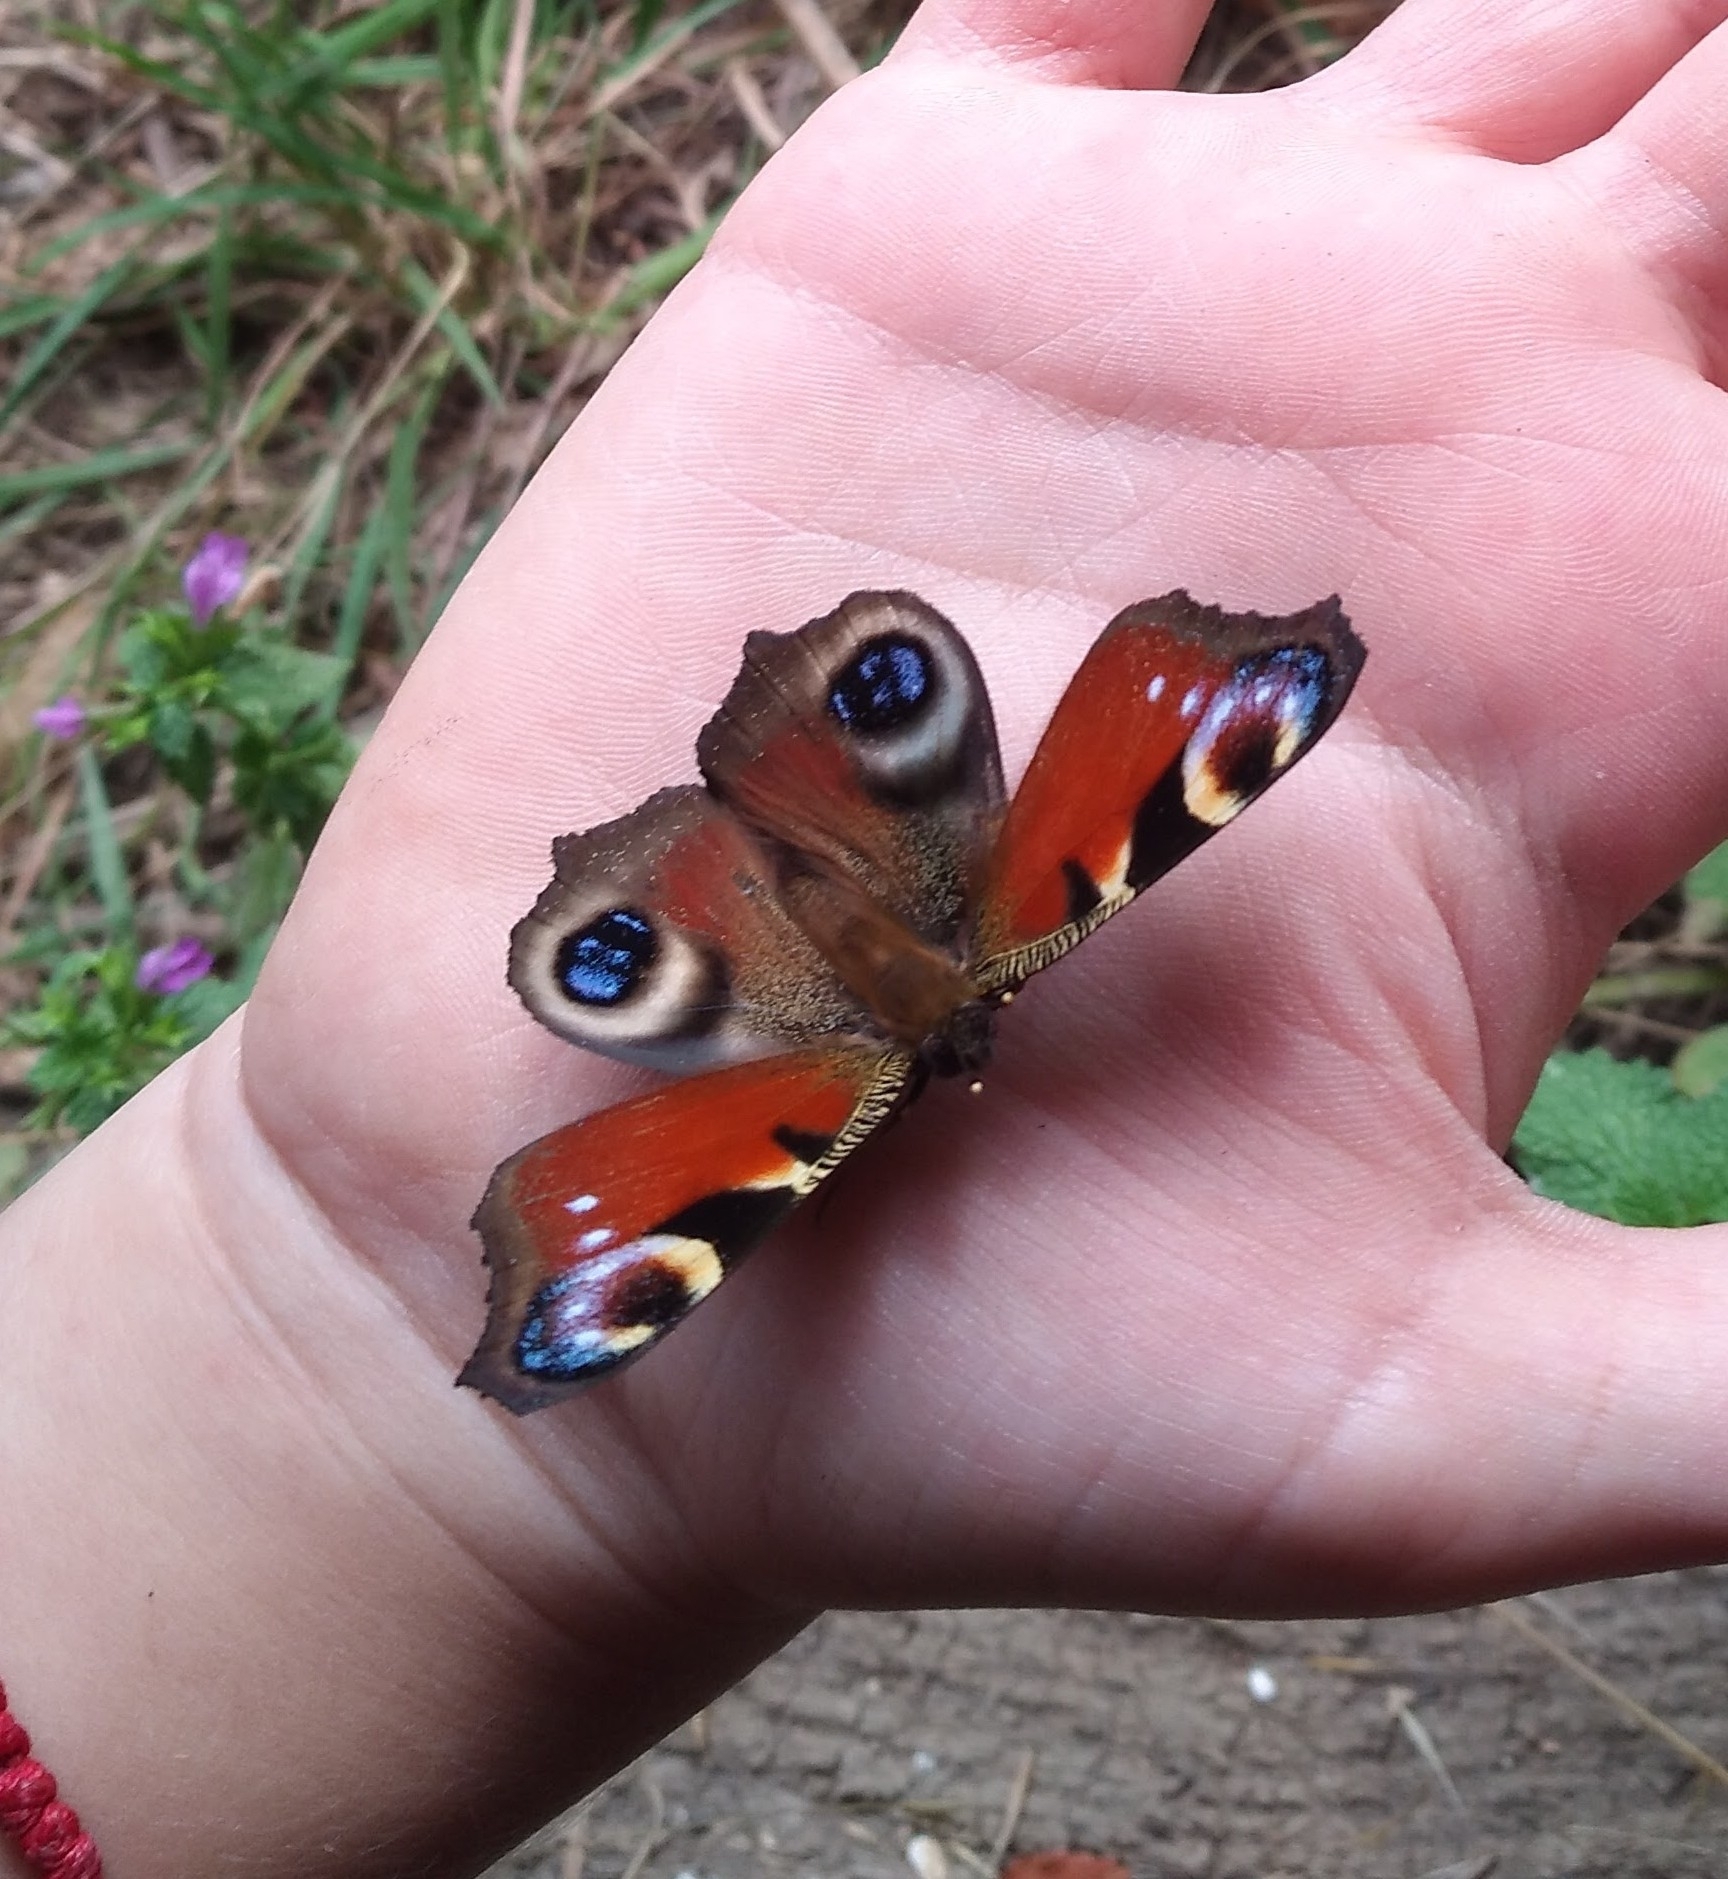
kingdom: Animalia
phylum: Arthropoda
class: Insecta
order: Lepidoptera
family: Nymphalidae
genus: Aglais
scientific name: Aglais io
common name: Peacock
